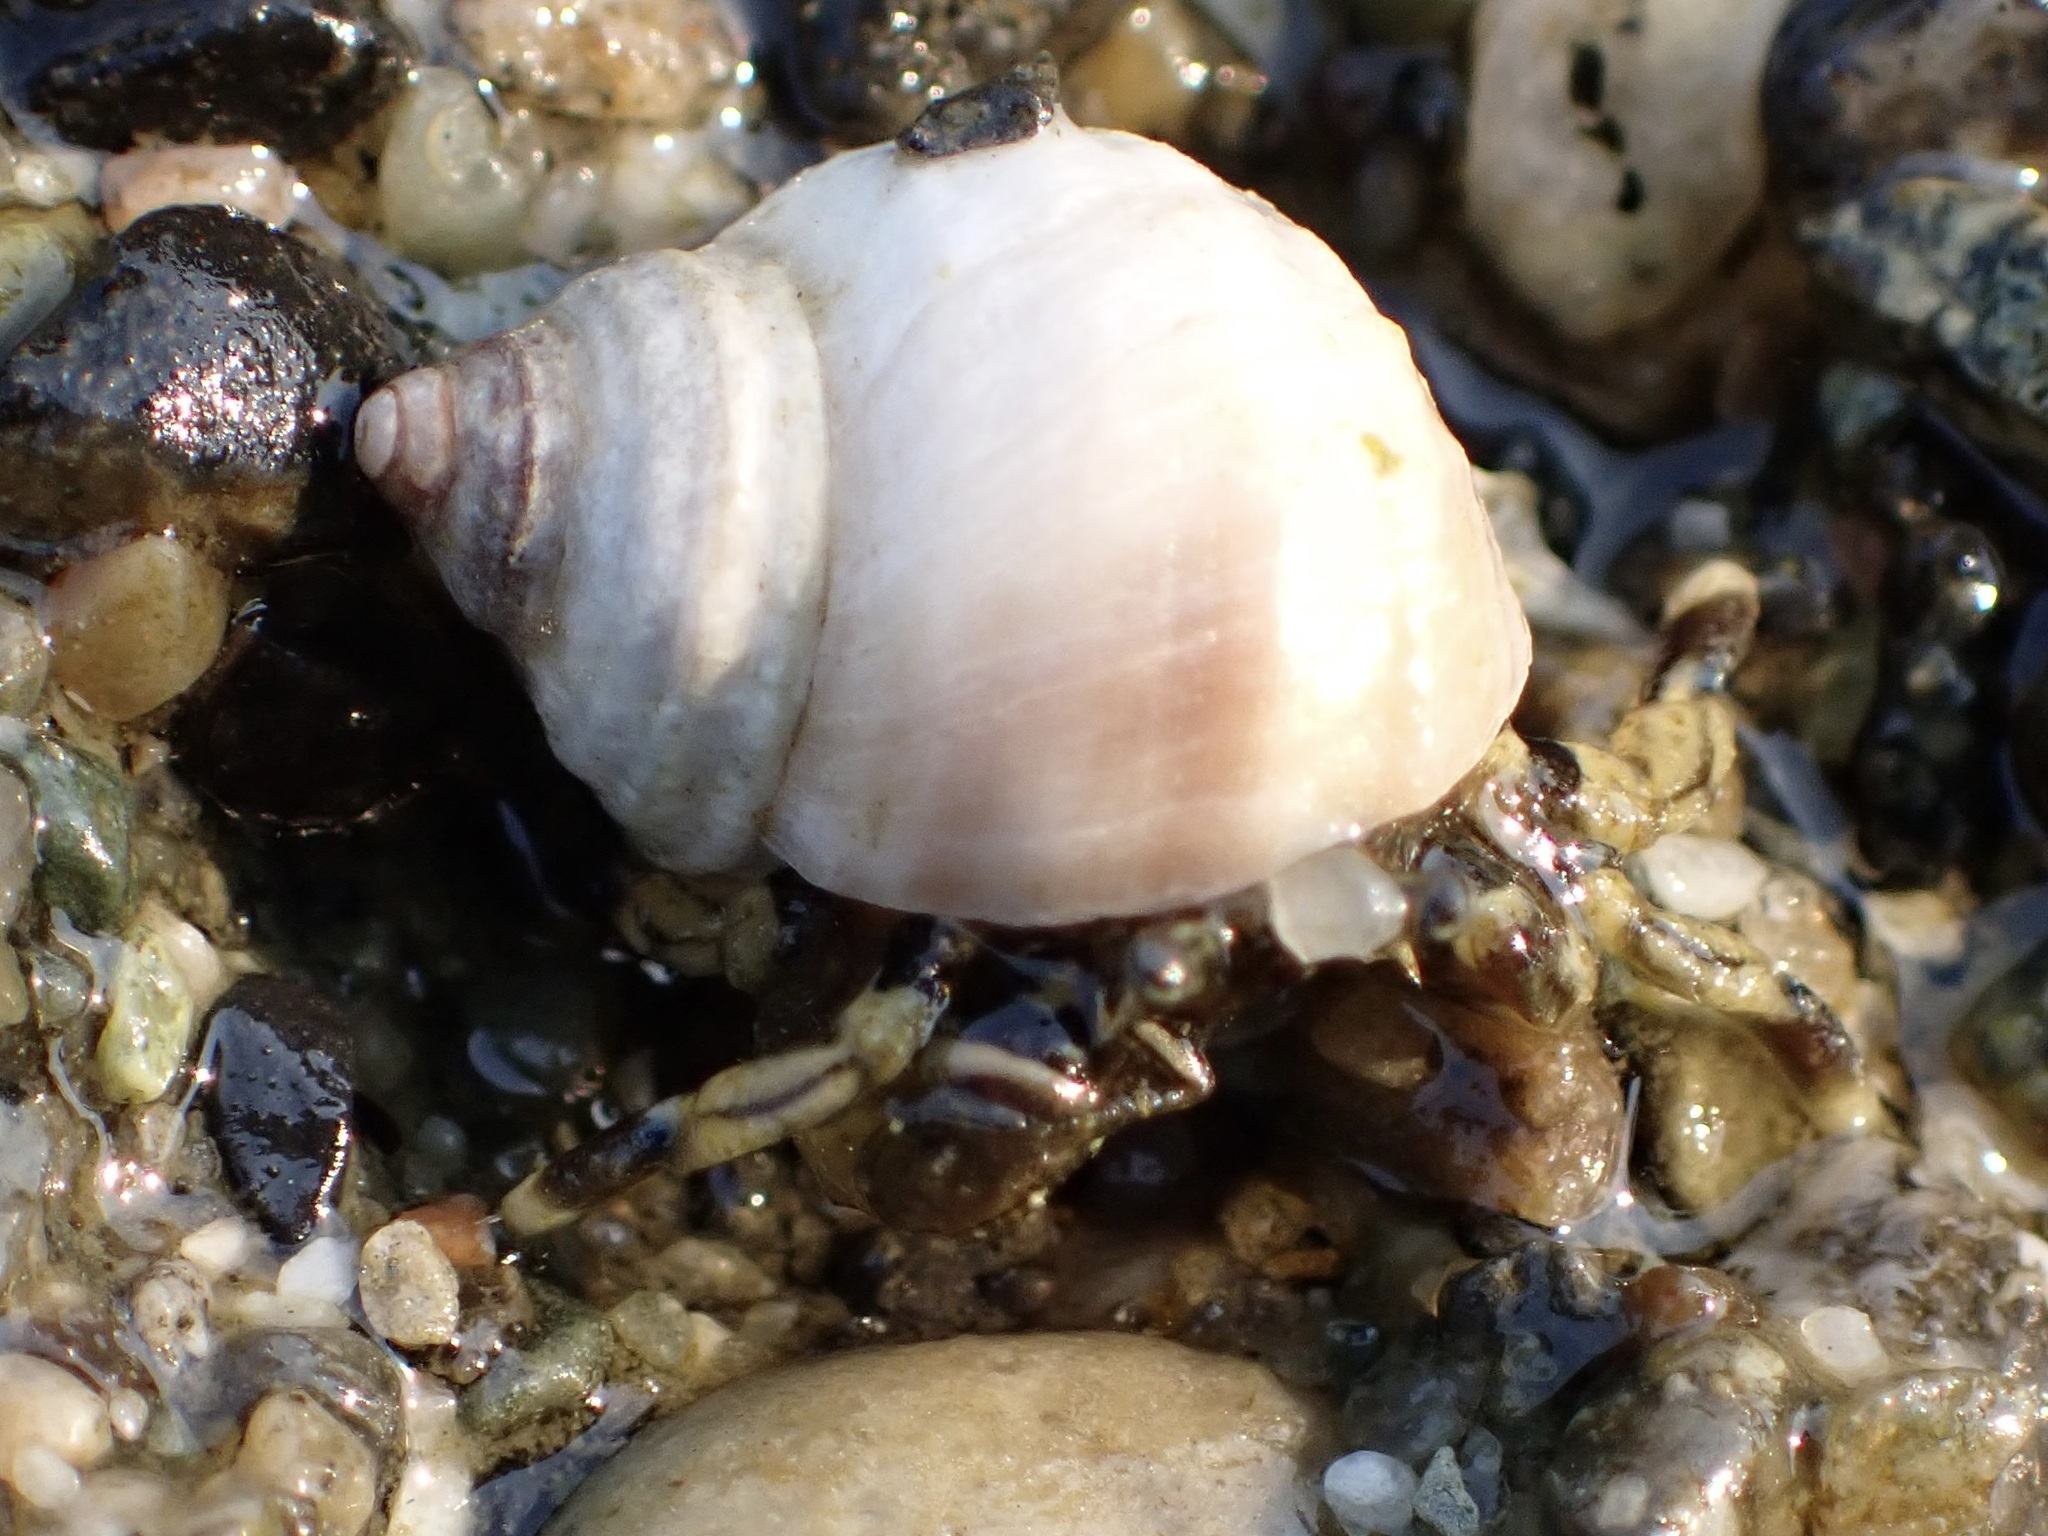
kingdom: Animalia
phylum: Arthropoda
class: Malacostraca
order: Decapoda
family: Paguridae
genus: Pagurus
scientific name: Pagurus hirsutiusculus
